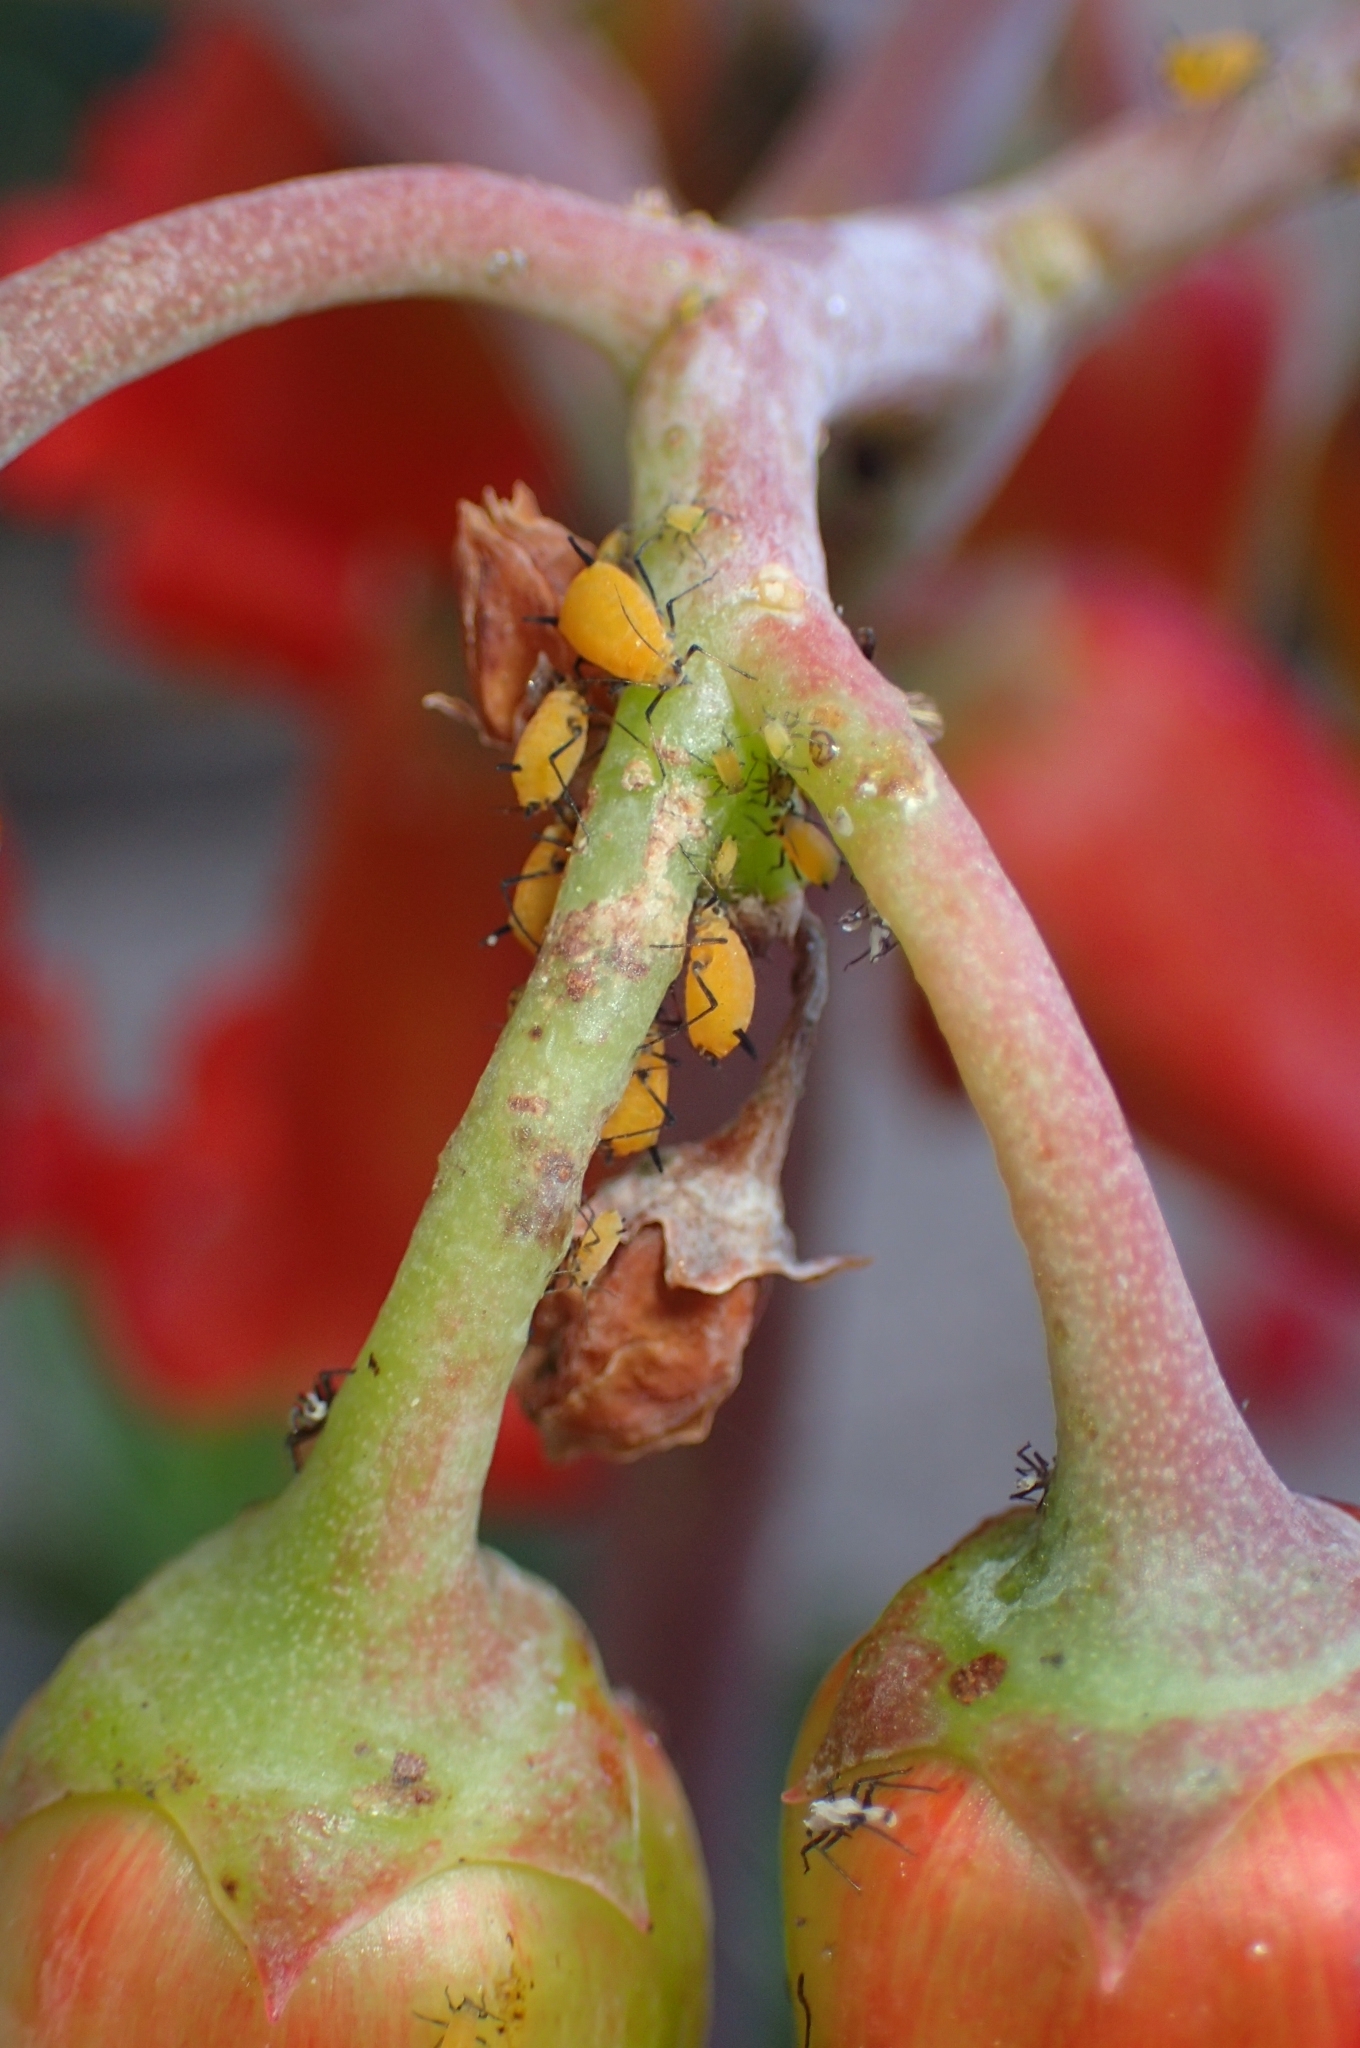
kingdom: Animalia
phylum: Arthropoda
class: Insecta
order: Hemiptera
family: Aphididae
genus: Aphis
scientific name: Aphis nerii
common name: Oleander aphid
